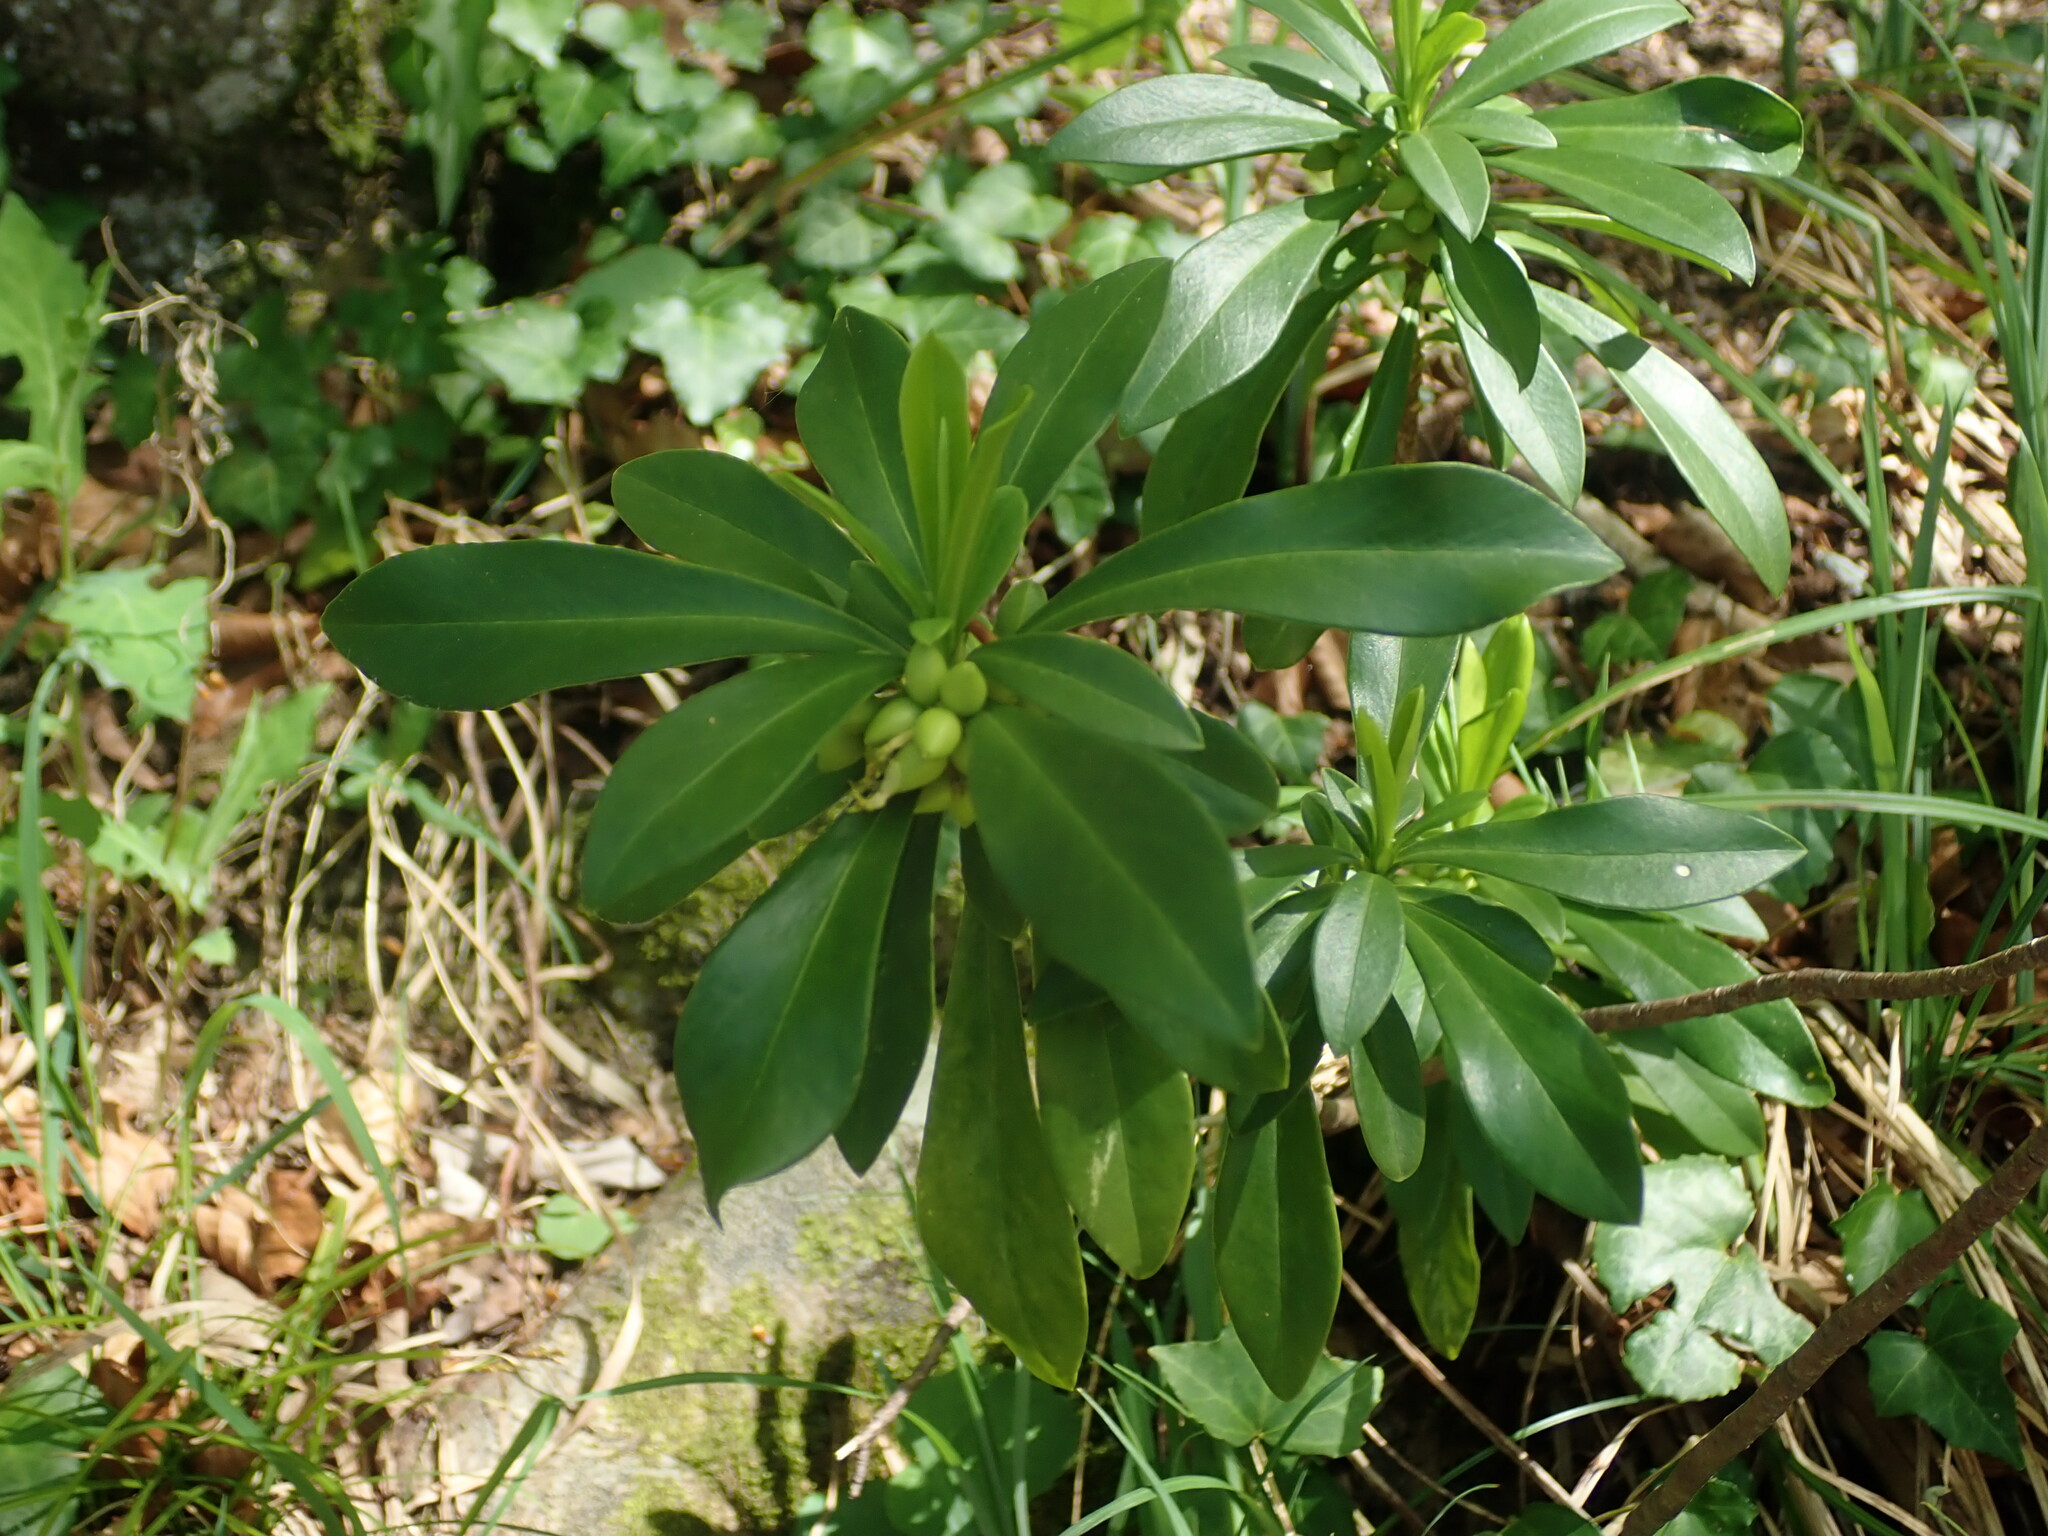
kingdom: Plantae
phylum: Tracheophyta
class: Magnoliopsida
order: Malvales
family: Thymelaeaceae
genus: Daphne
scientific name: Daphne laureola
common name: Spurge-laurel
